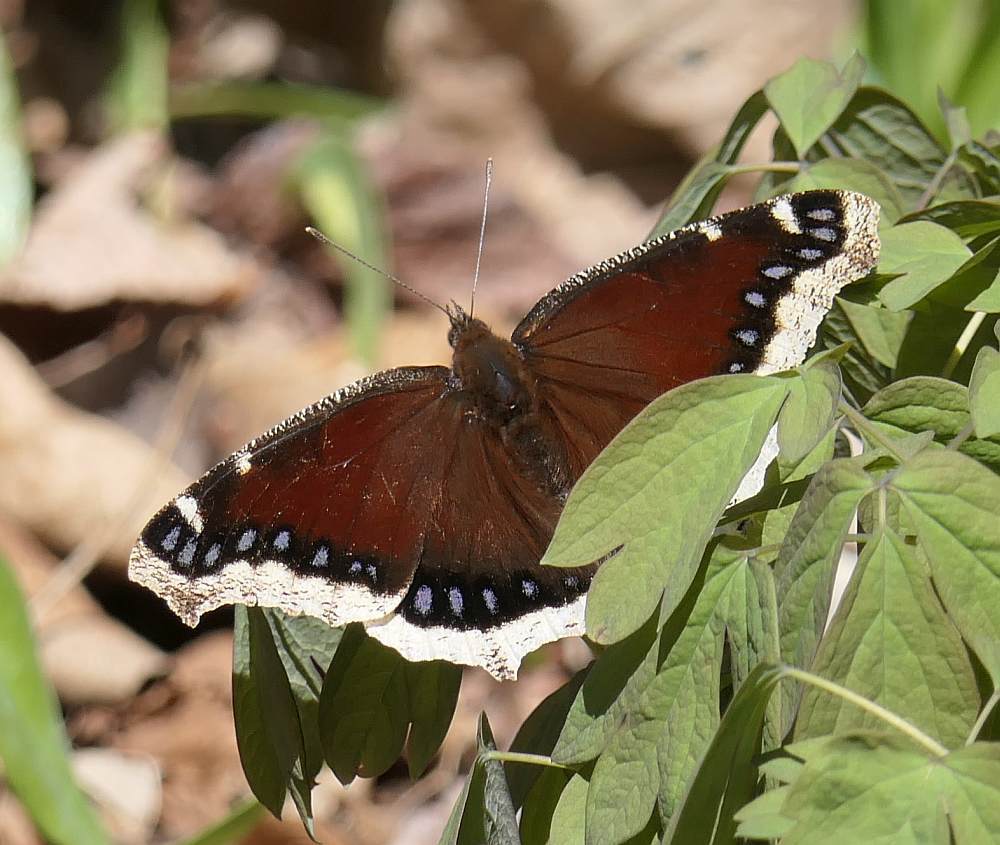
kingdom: Animalia
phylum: Arthropoda
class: Insecta
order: Lepidoptera
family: Nymphalidae
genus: Nymphalis
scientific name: Nymphalis antiopa
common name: Camberwell beauty
